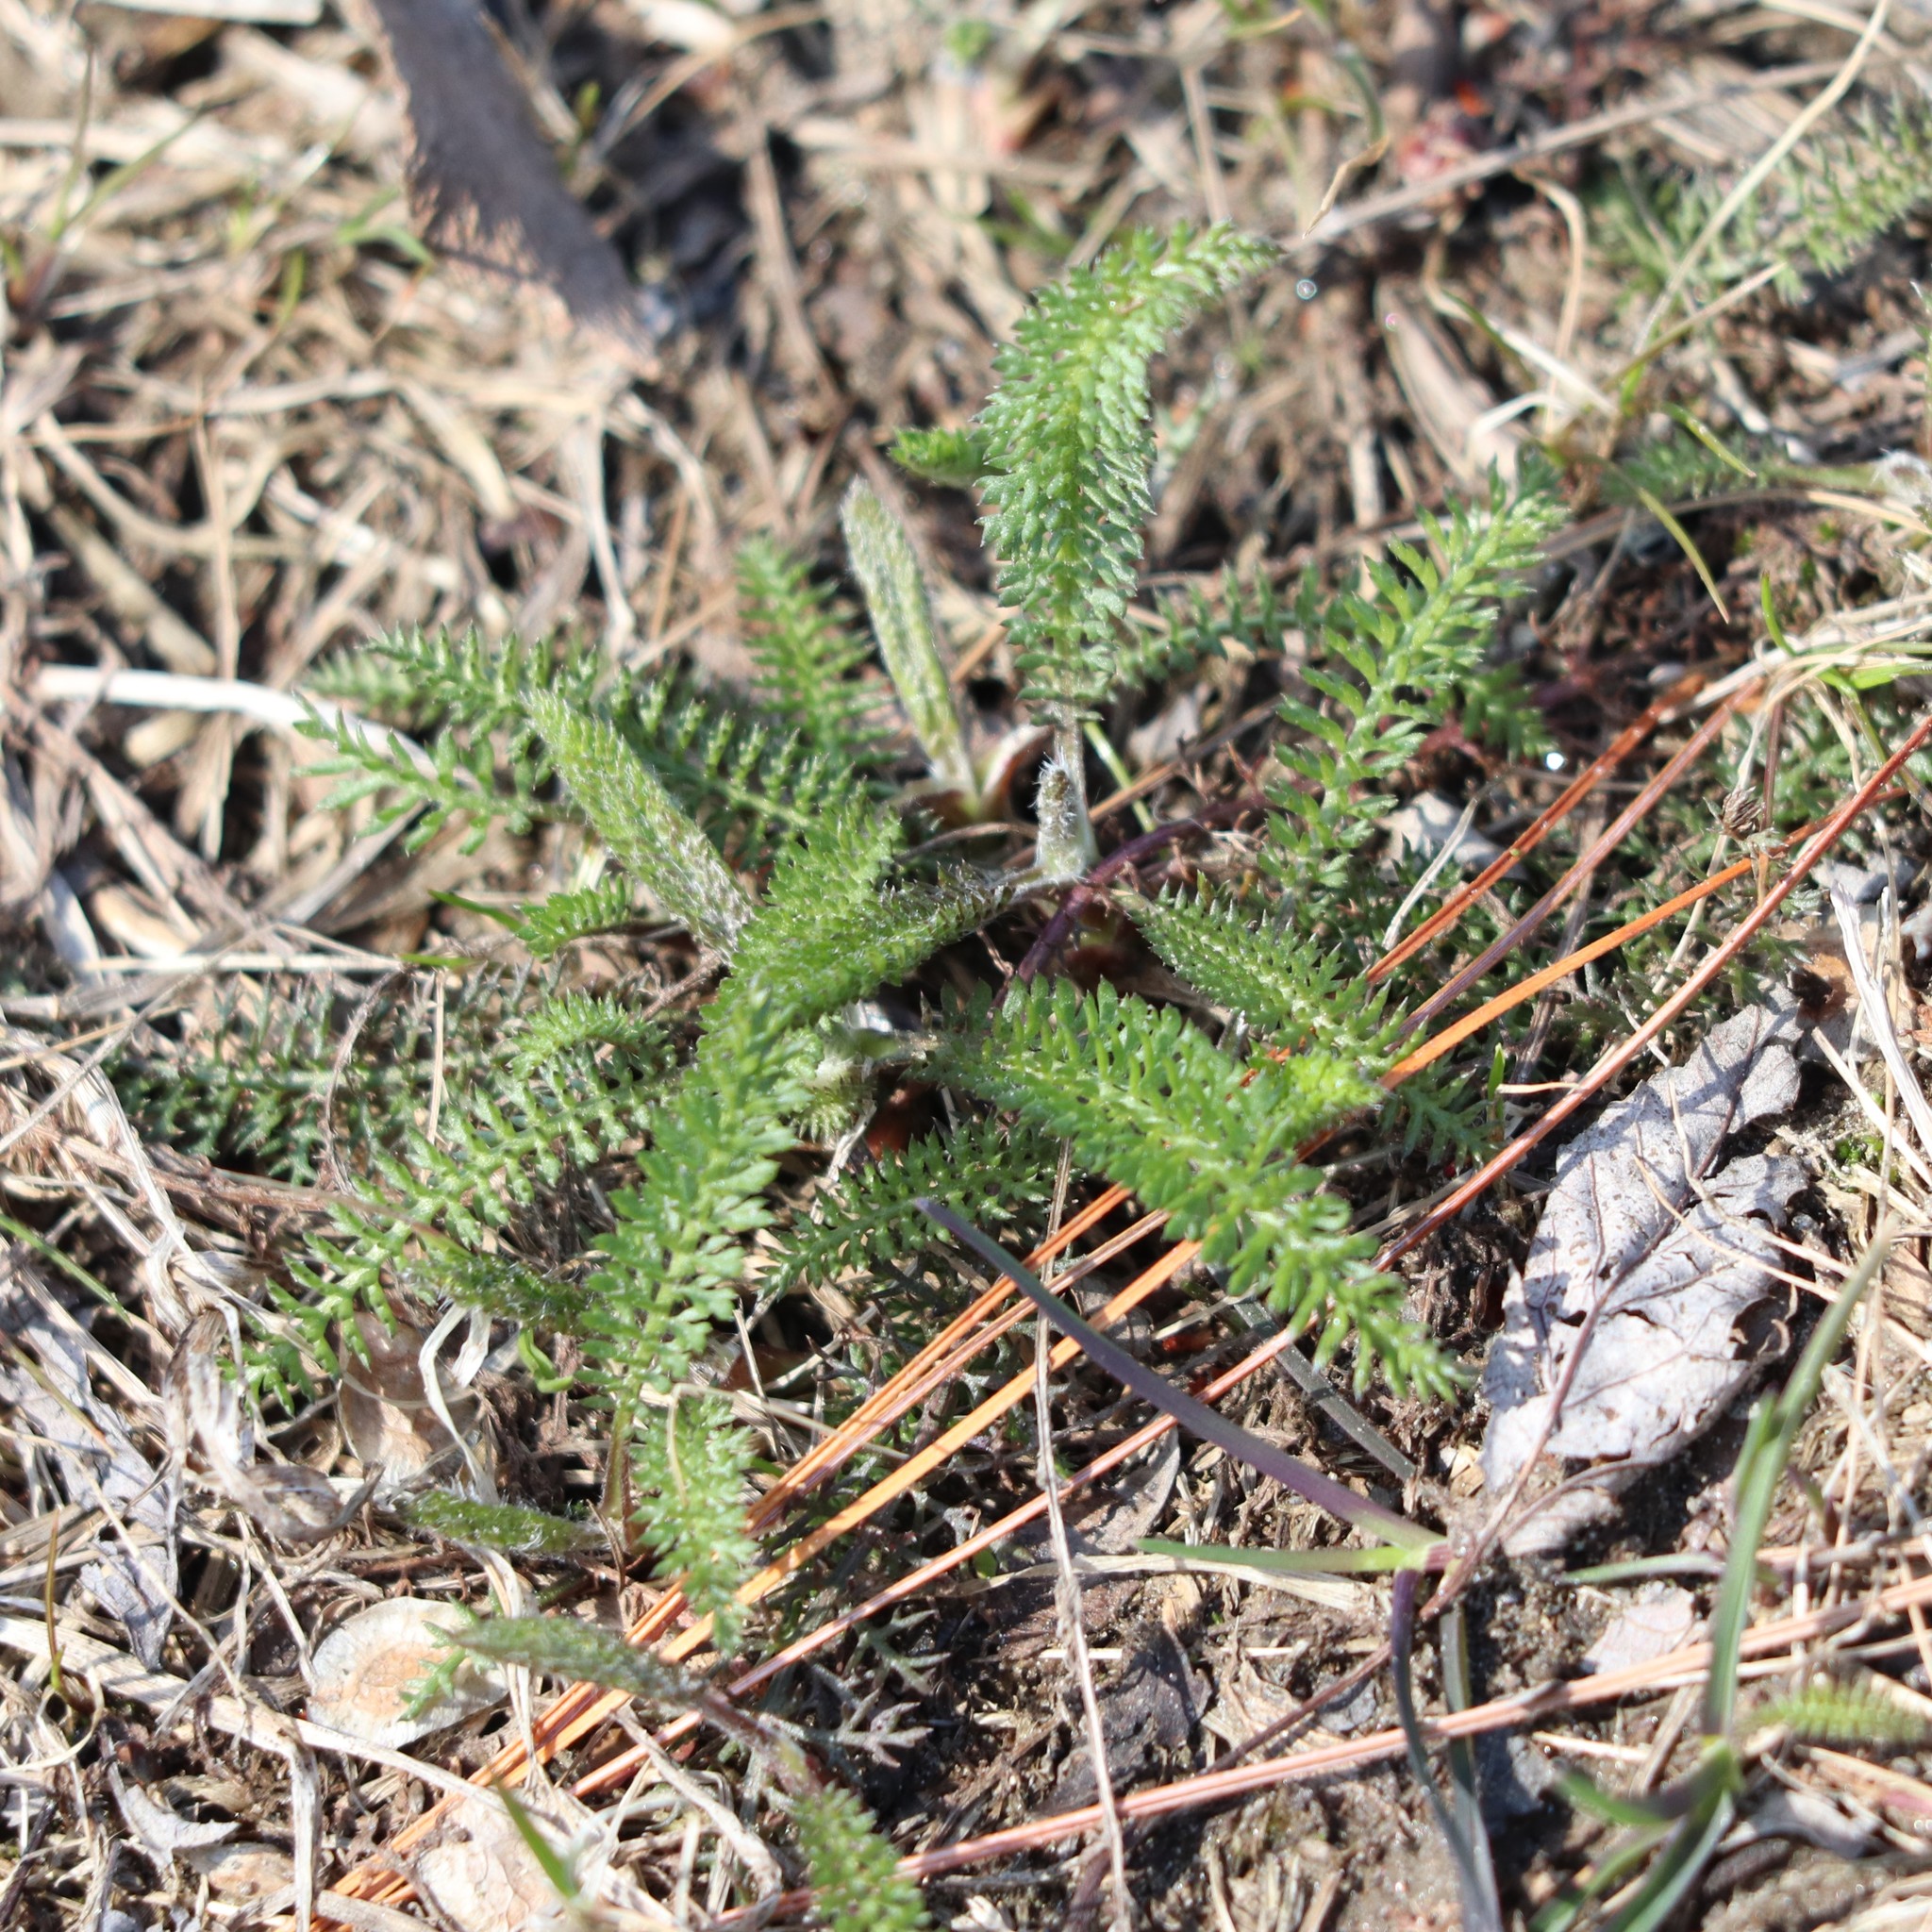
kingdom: Plantae
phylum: Tracheophyta
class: Magnoliopsida
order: Asterales
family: Asteraceae
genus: Achillea
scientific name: Achillea millefolium
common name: Yarrow
